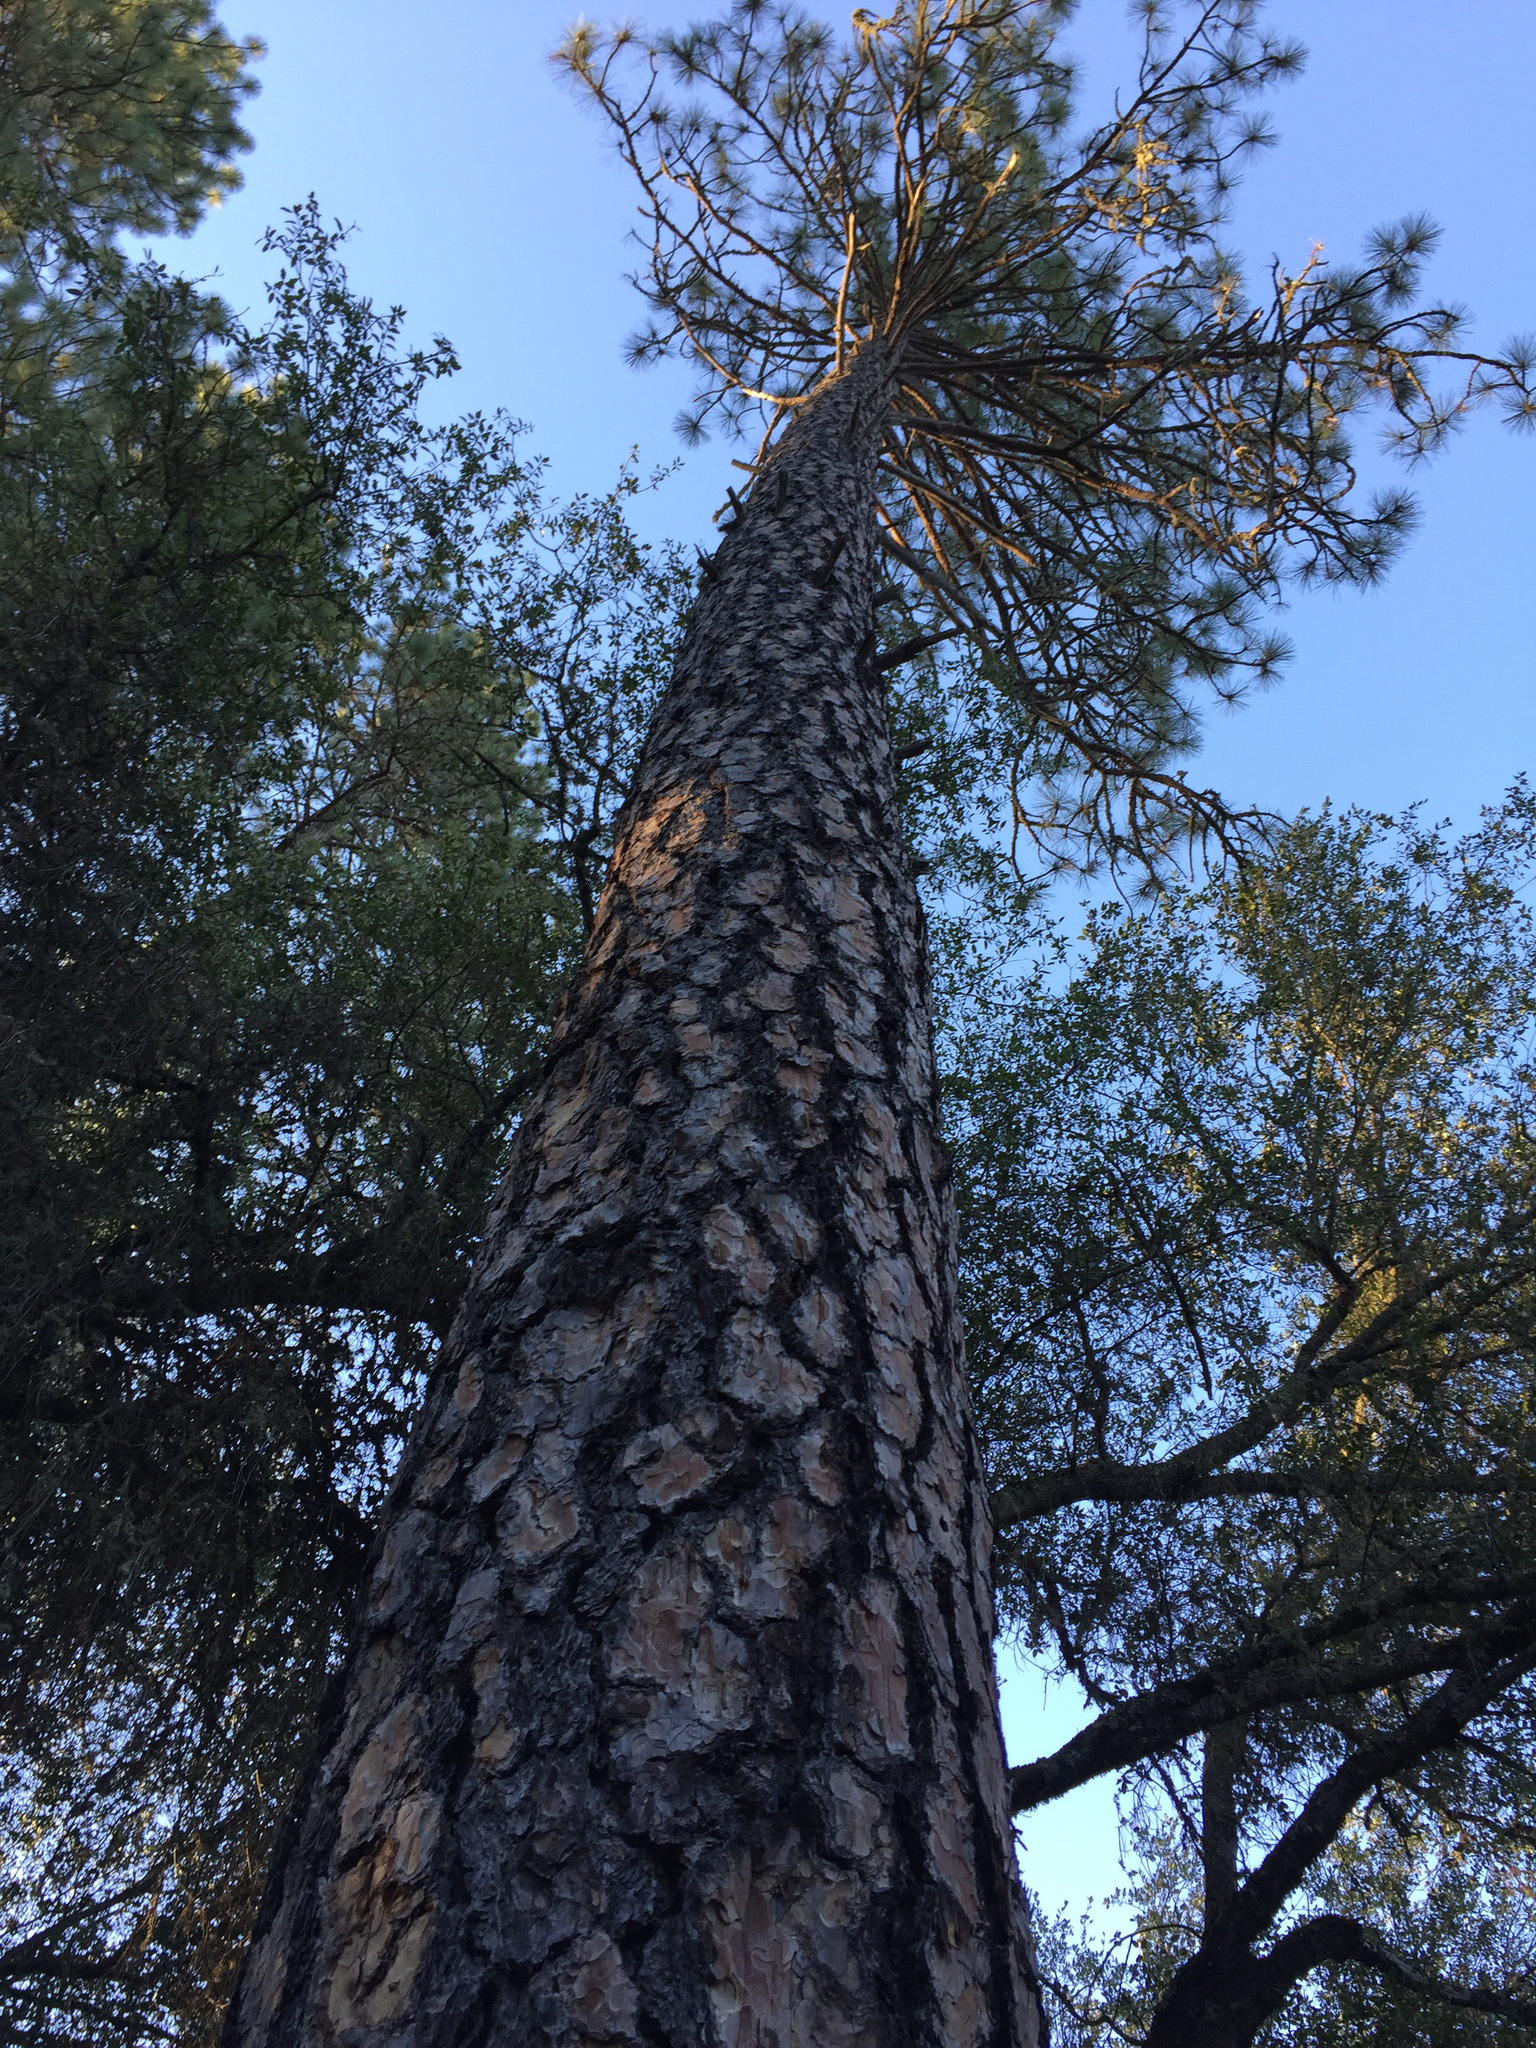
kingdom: Plantae
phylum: Tracheophyta
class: Pinopsida
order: Pinales
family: Pinaceae
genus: Pinus
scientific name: Pinus ponderosa
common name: Western yellow-pine
